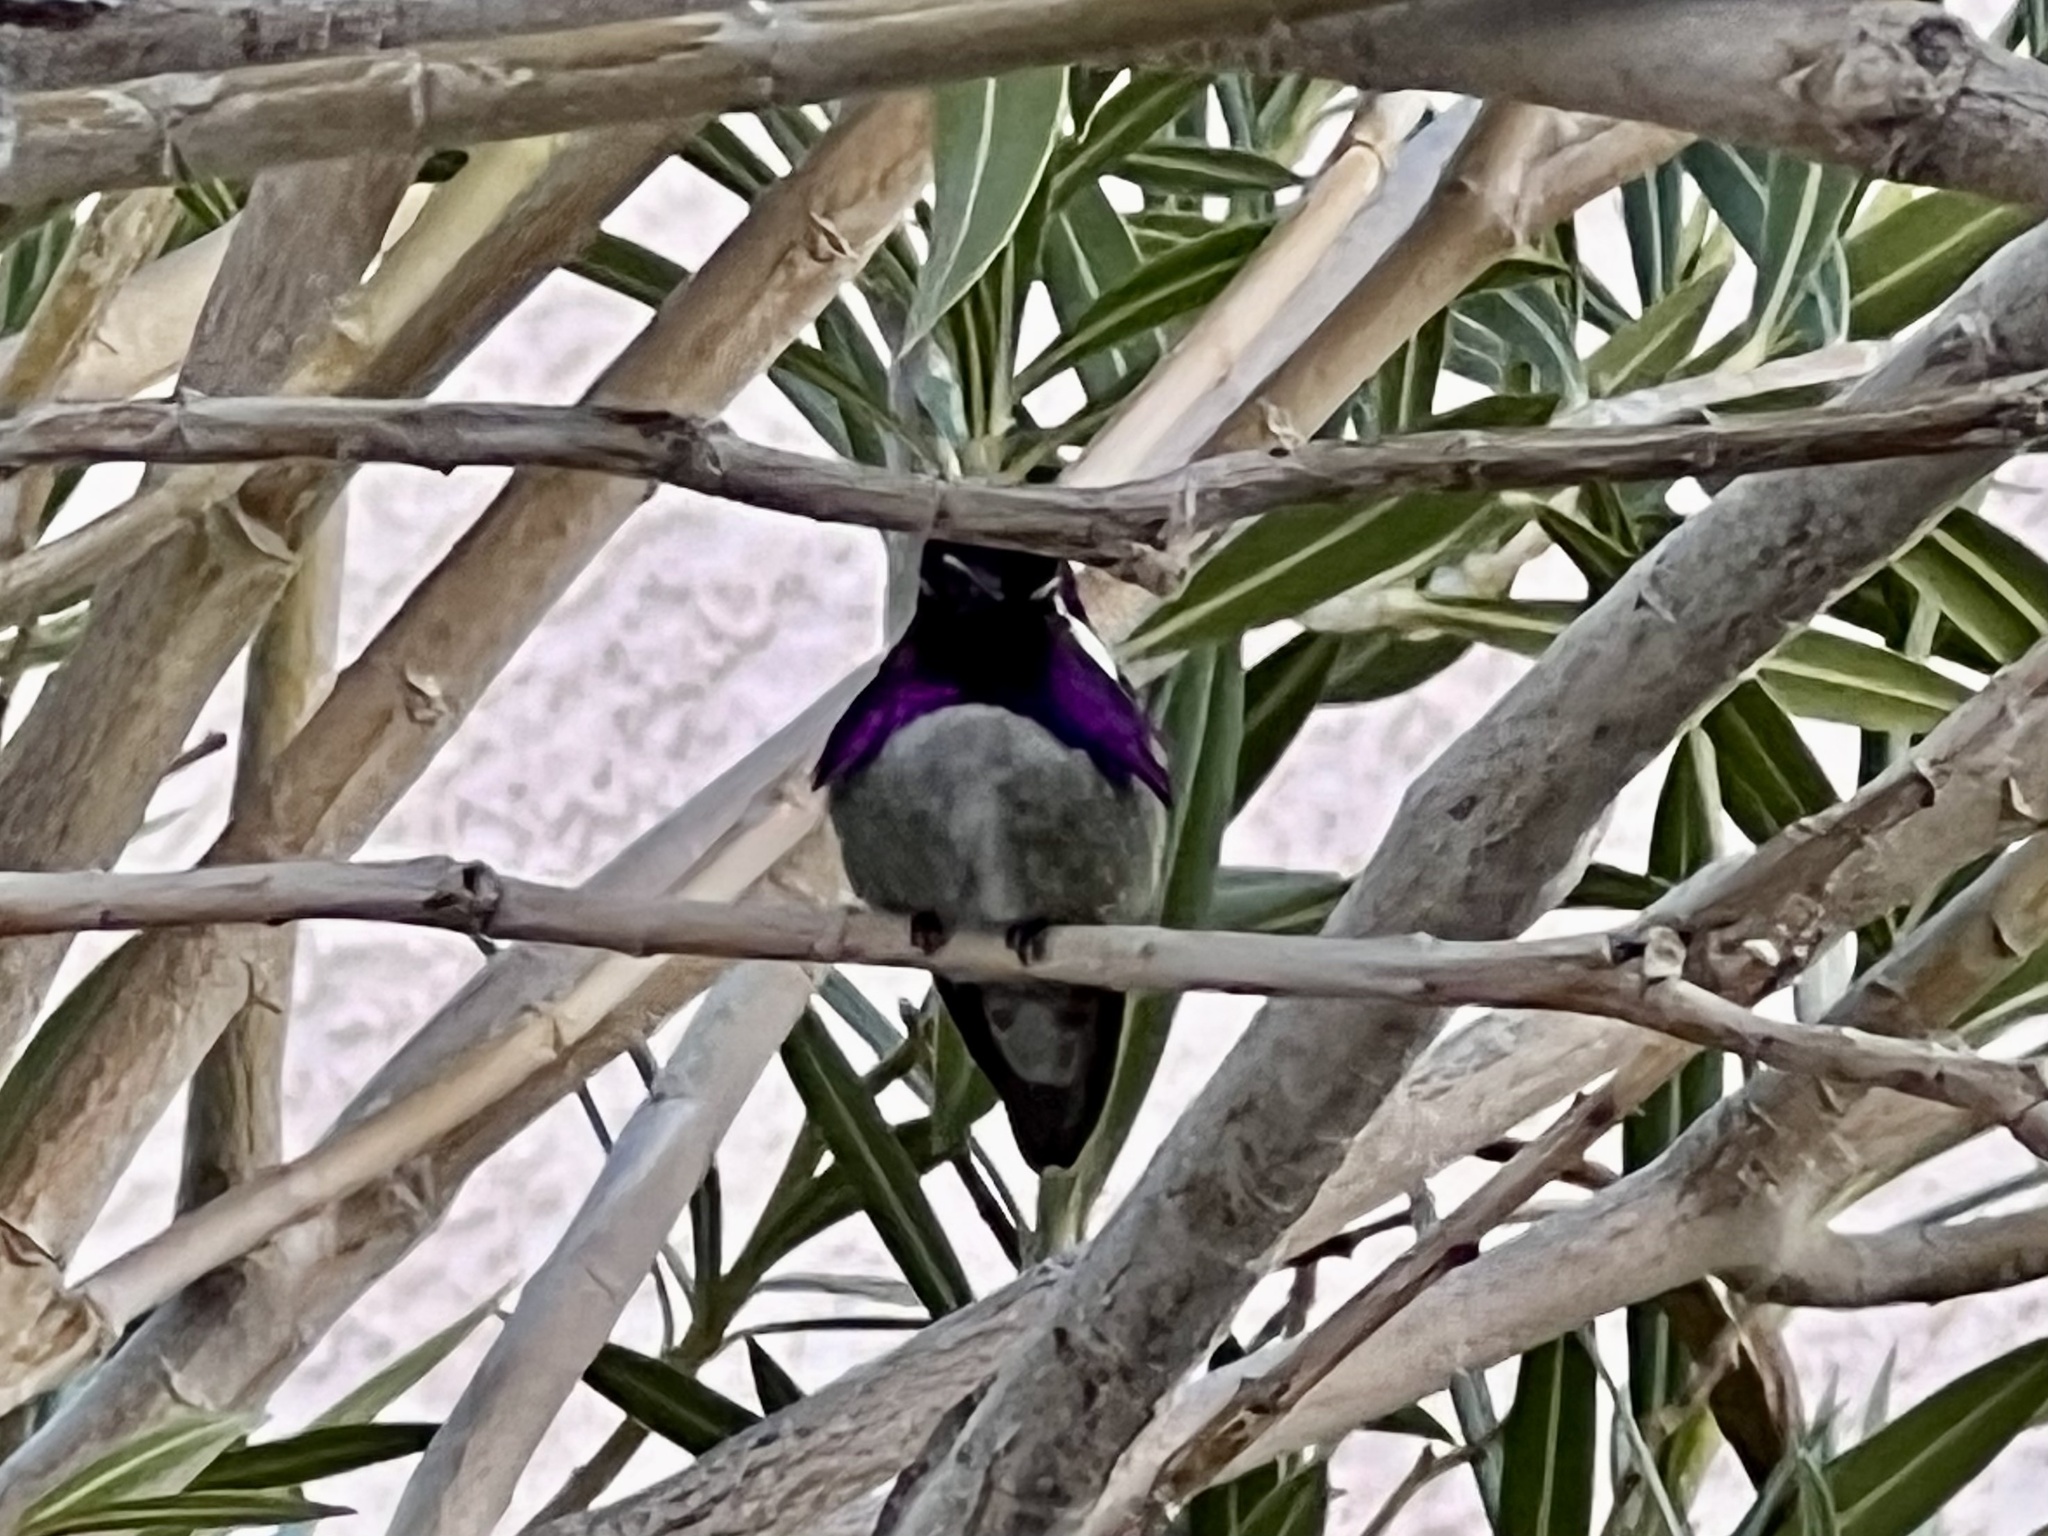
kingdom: Animalia
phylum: Chordata
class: Aves
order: Apodiformes
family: Trochilidae
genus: Calypte
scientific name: Calypte costae
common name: Costa's hummingbird
